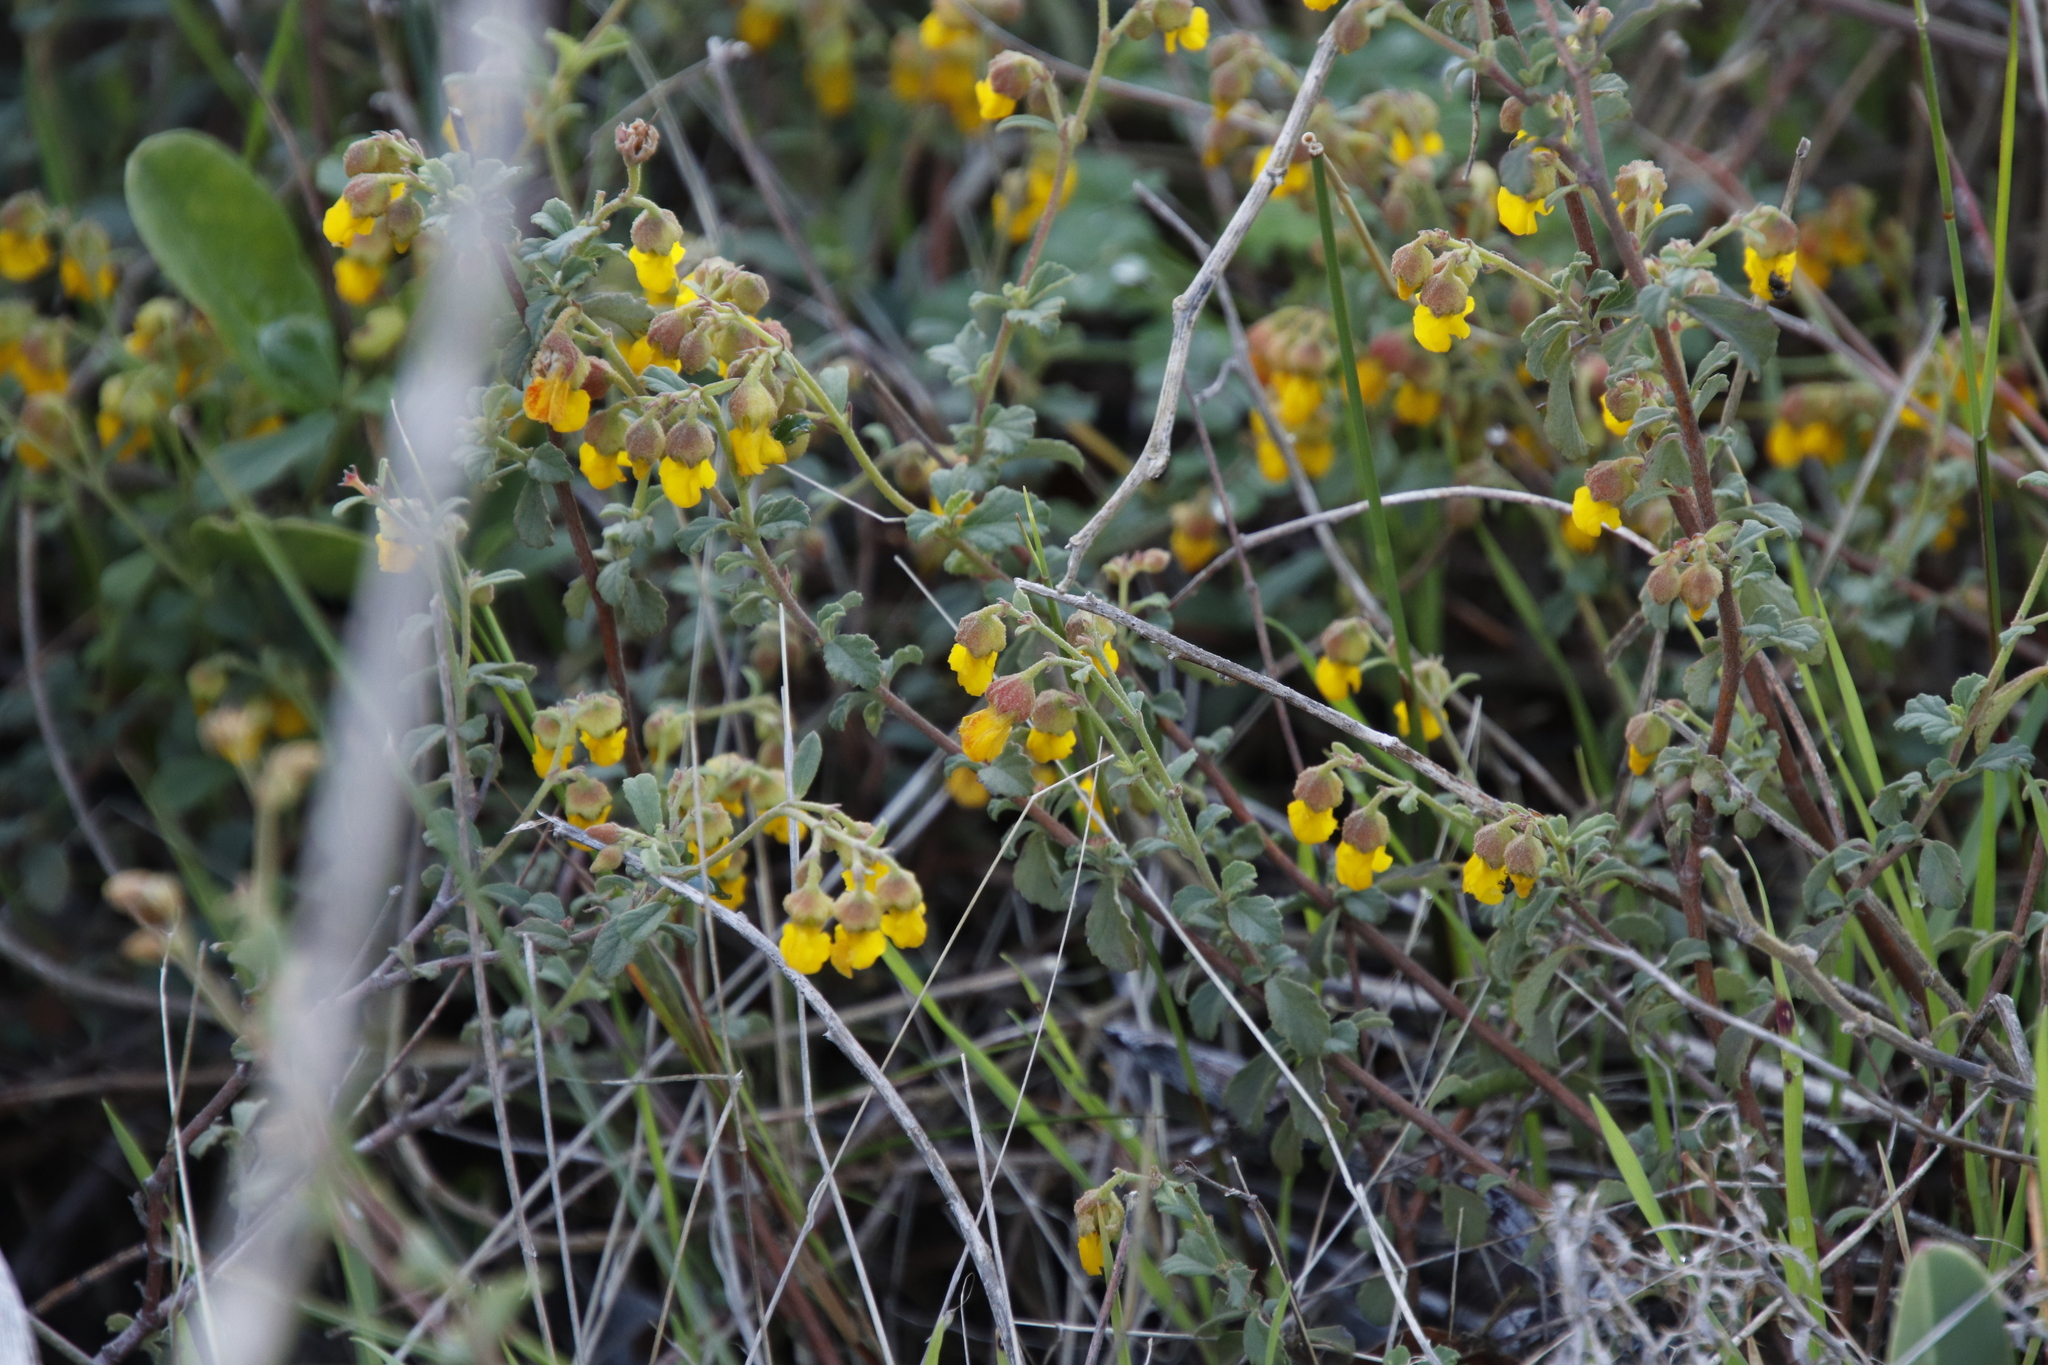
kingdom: Plantae
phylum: Tracheophyta
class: Magnoliopsida
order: Malvales
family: Malvaceae
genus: Hermannia
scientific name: Hermannia multiflora
